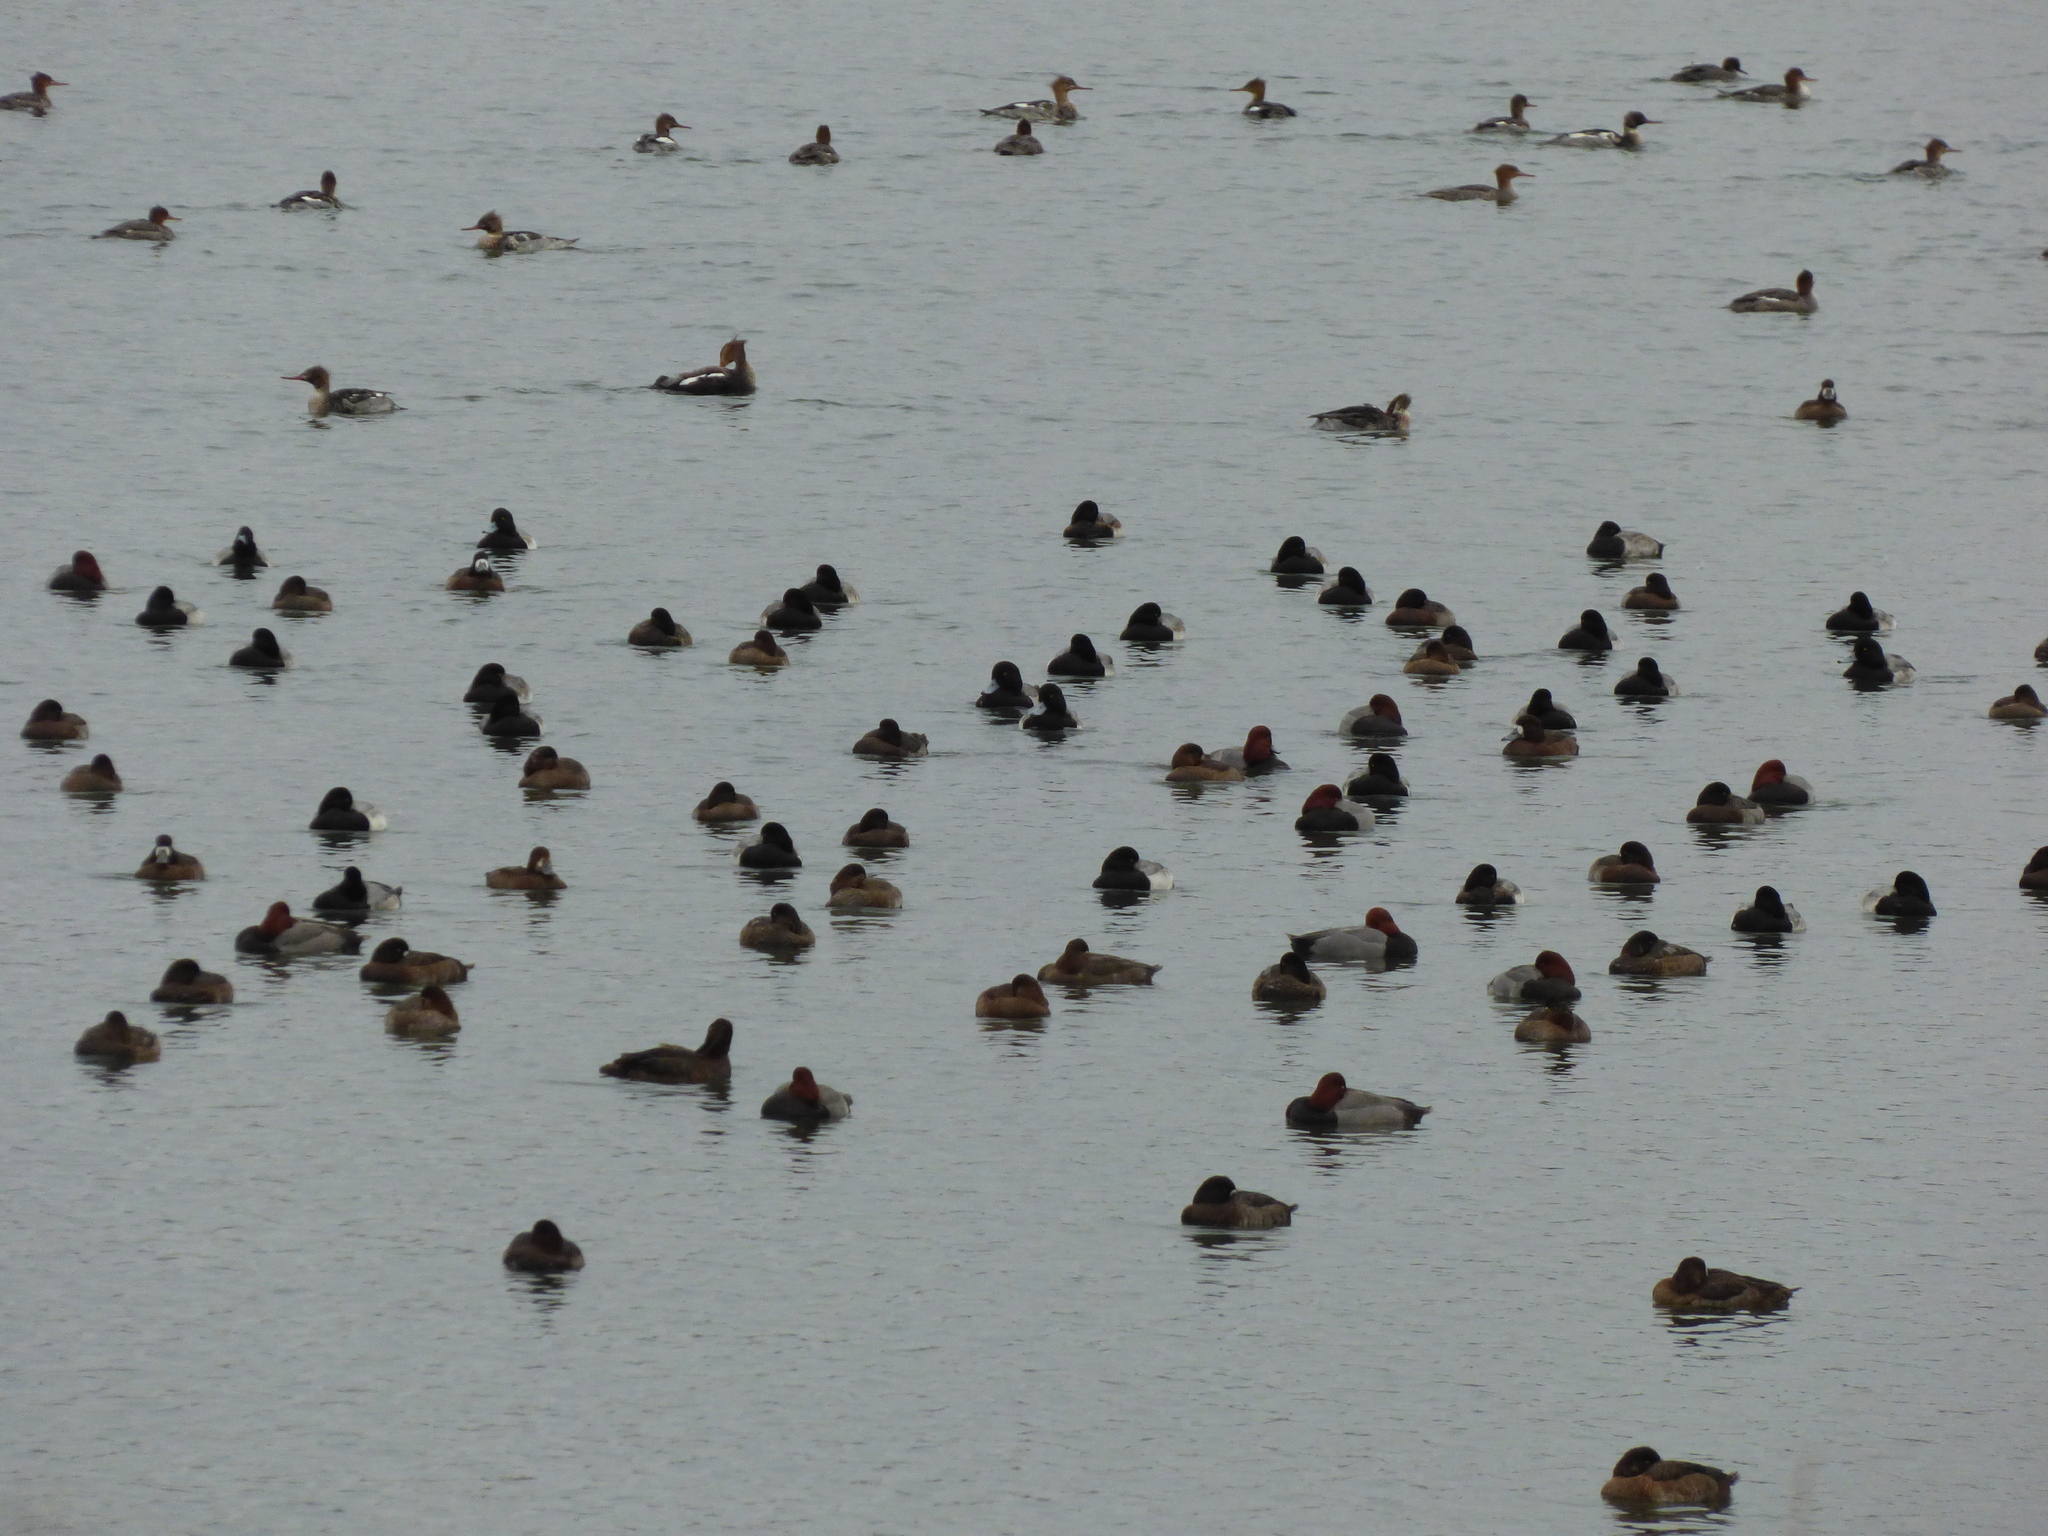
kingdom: Animalia
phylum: Chordata
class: Aves
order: Anseriformes
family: Anatidae
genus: Aythya
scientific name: Aythya marila
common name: Greater scaup
